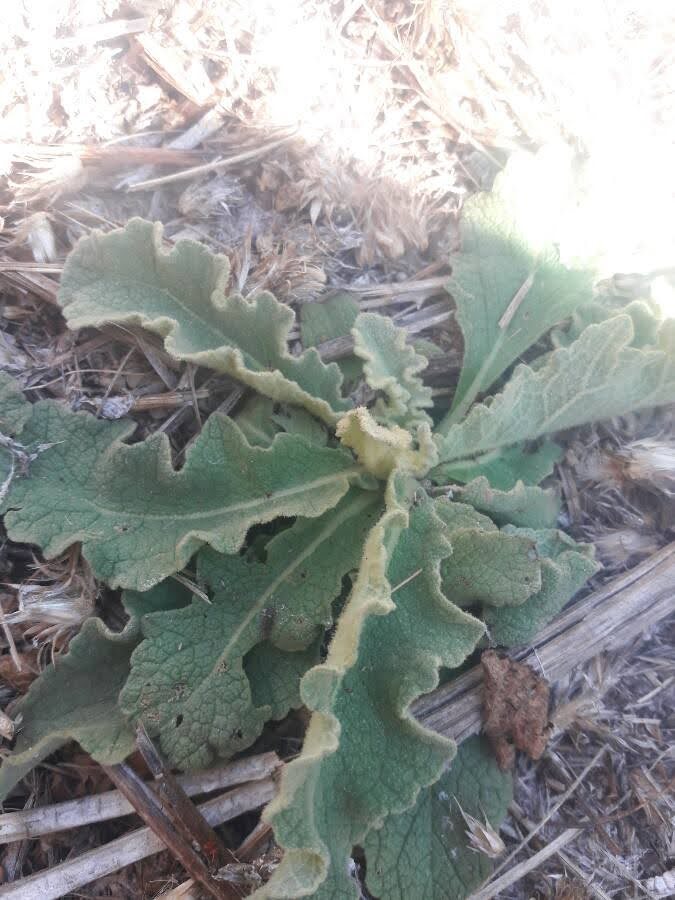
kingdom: Plantae
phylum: Tracheophyta
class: Magnoliopsida
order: Lamiales
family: Scrophulariaceae
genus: Verbascum
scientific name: Verbascum sinuatum
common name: Wavyleaf mullein
